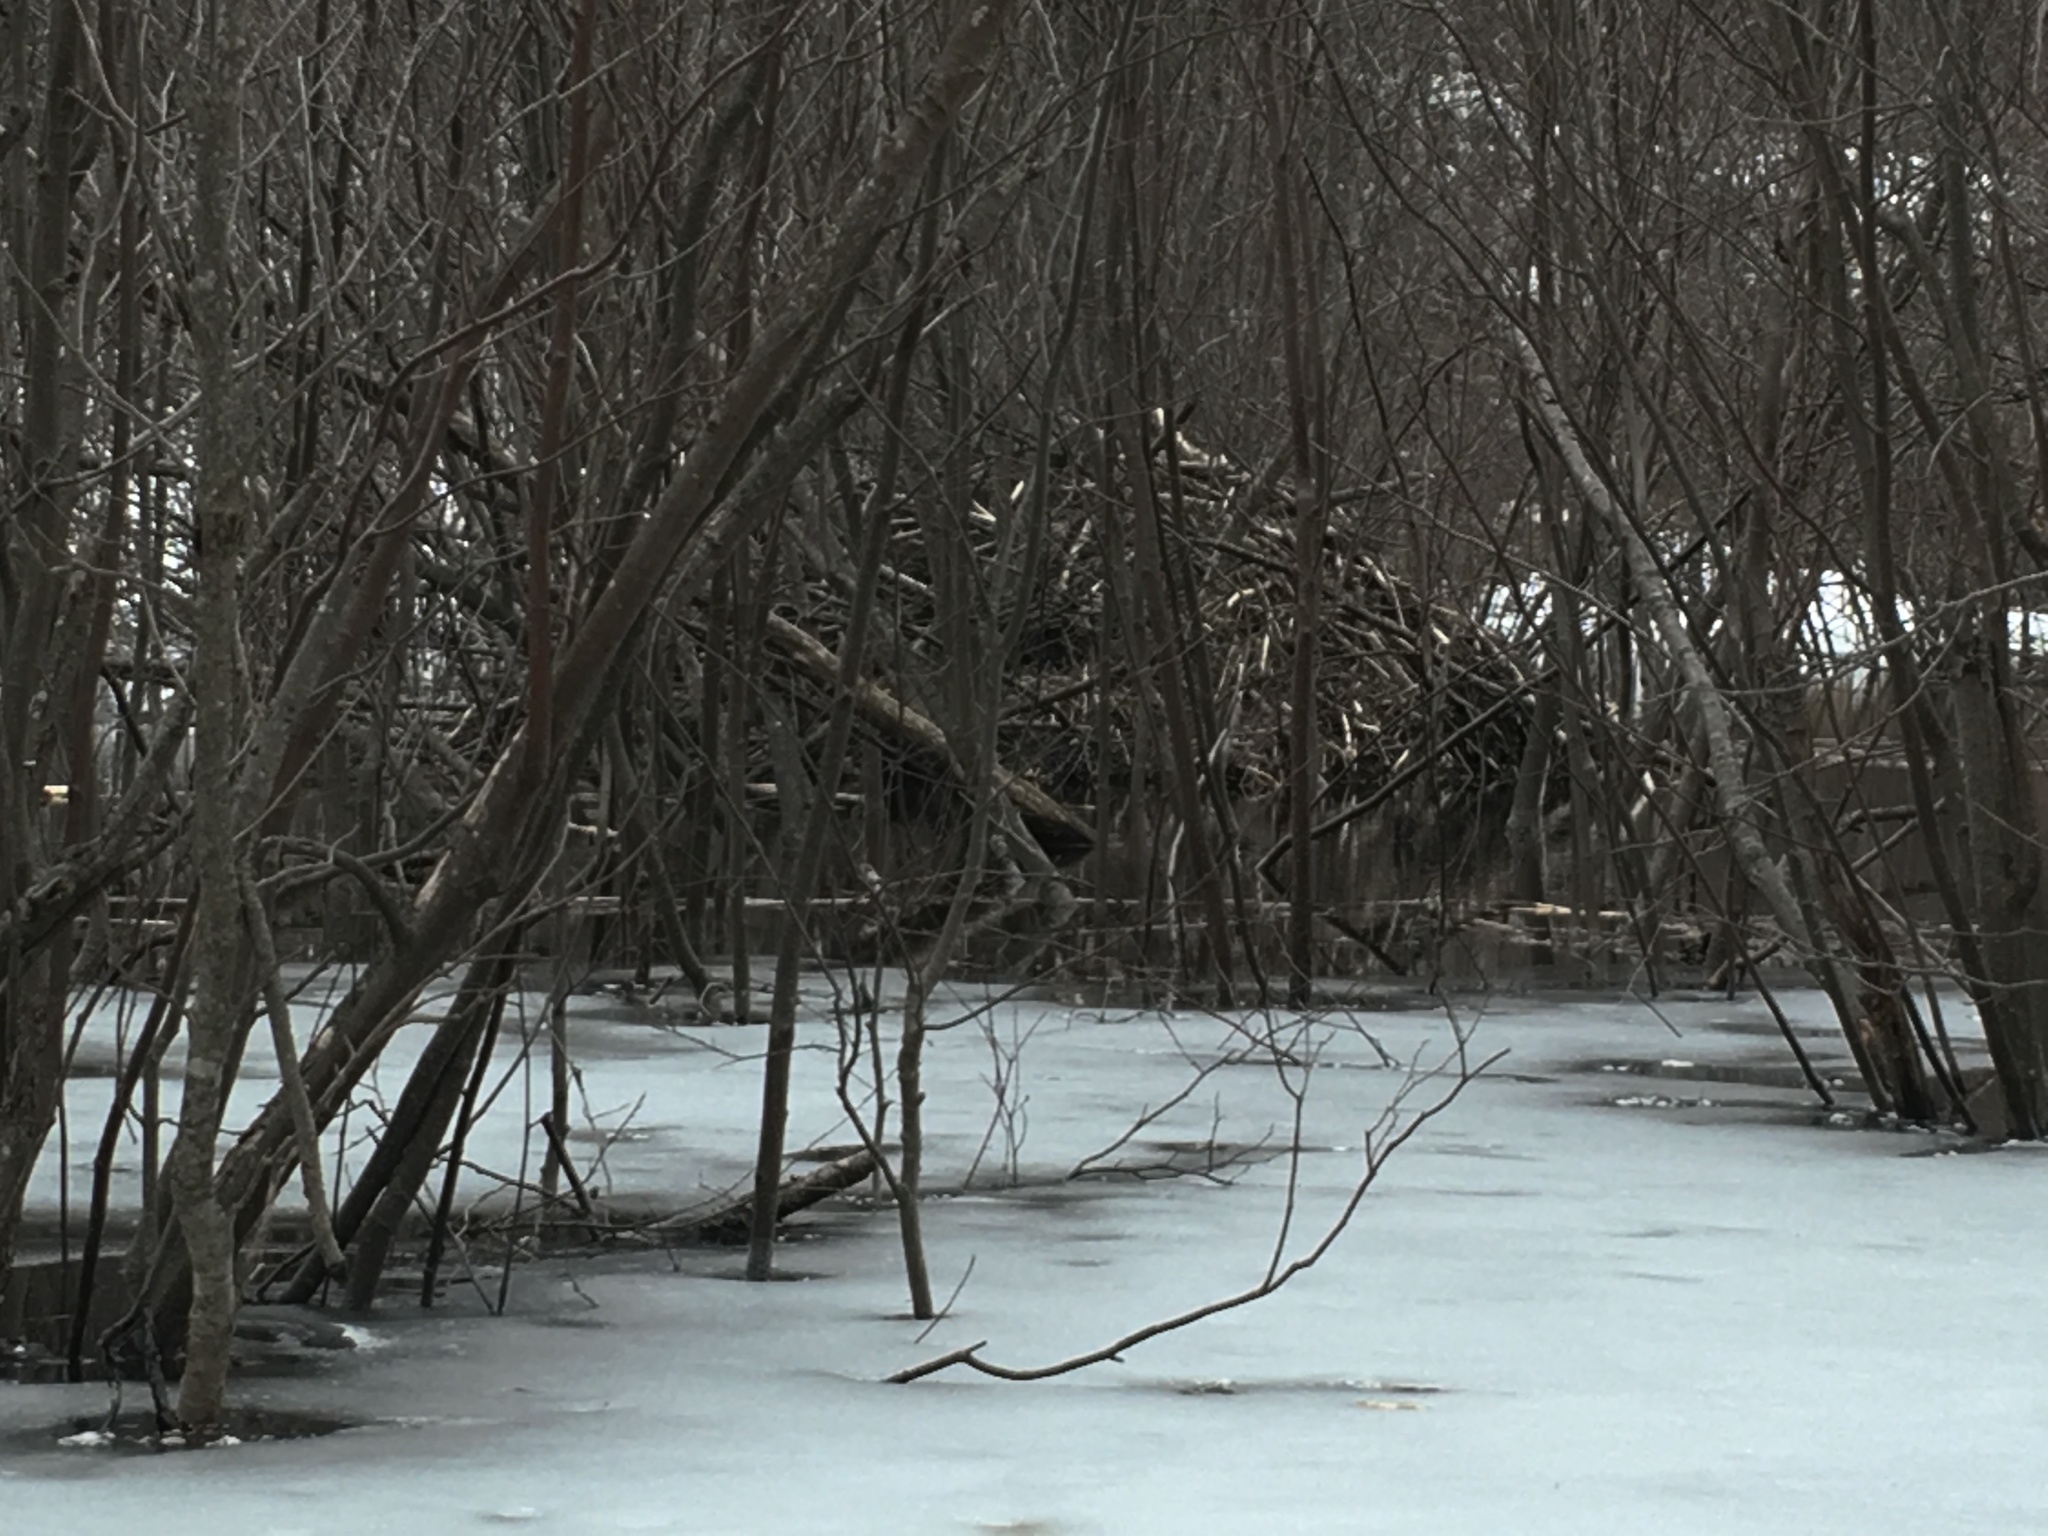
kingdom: Animalia
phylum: Chordata
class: Mammalia
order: Rodentia
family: Castoridae
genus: Castor
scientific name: Castor canadensis
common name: American beaver
